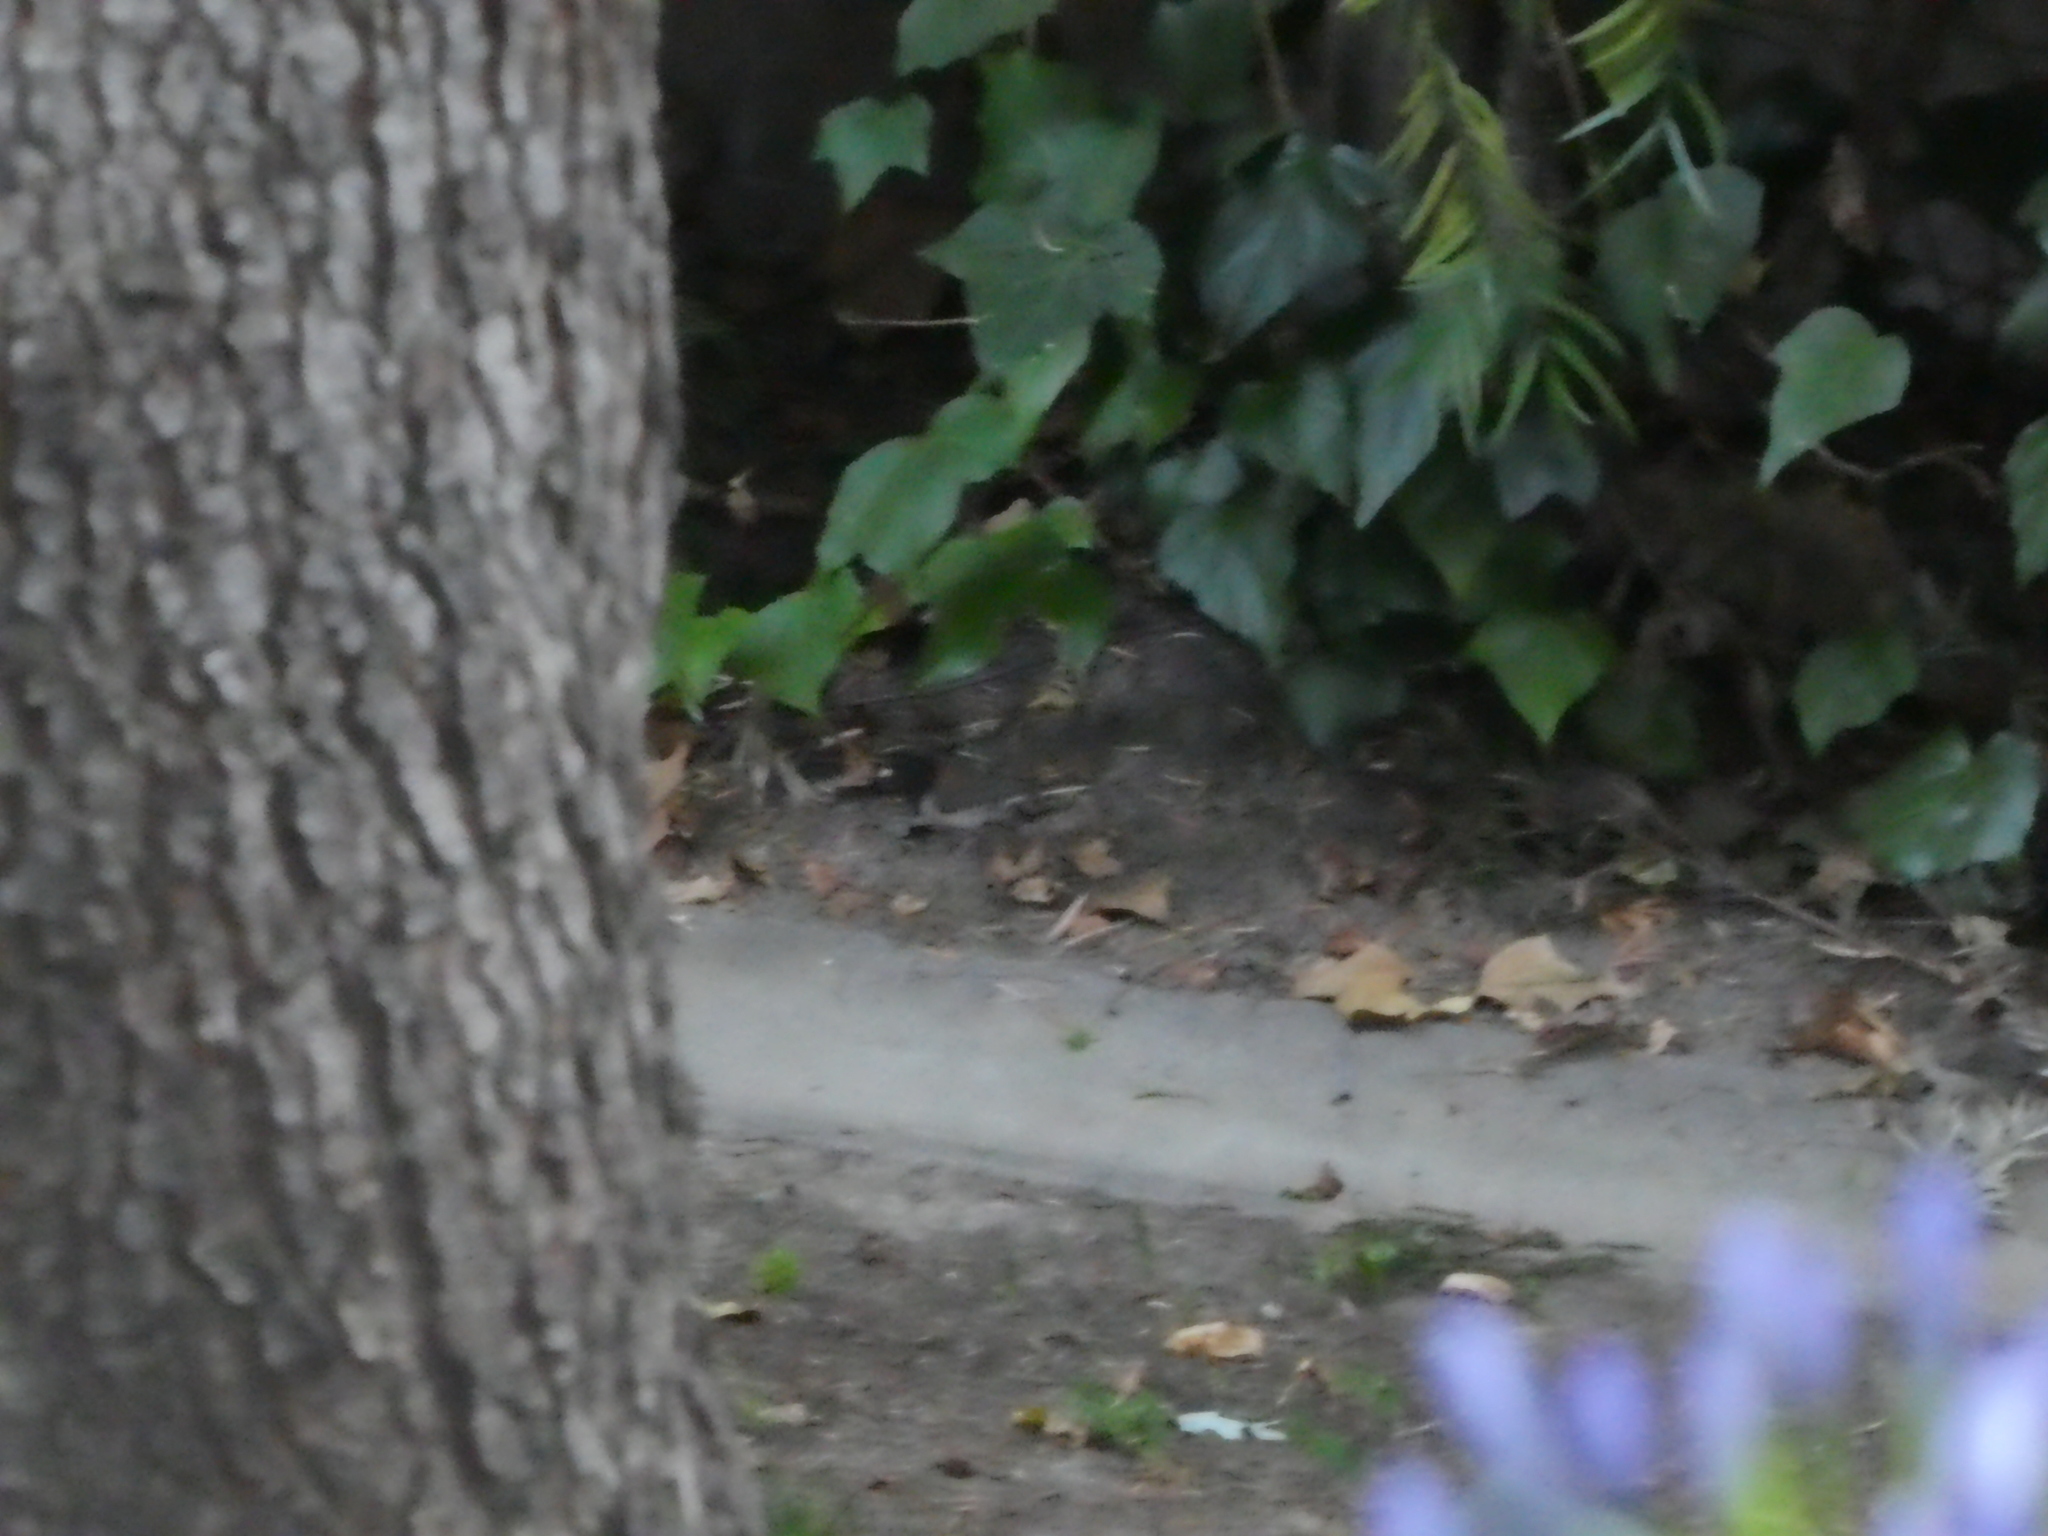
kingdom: Animalia
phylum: Chordata
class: Aves
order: Passeriformes
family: Passerellidae
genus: Junco
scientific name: Junco hyemalis
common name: Dark-eyed junco
